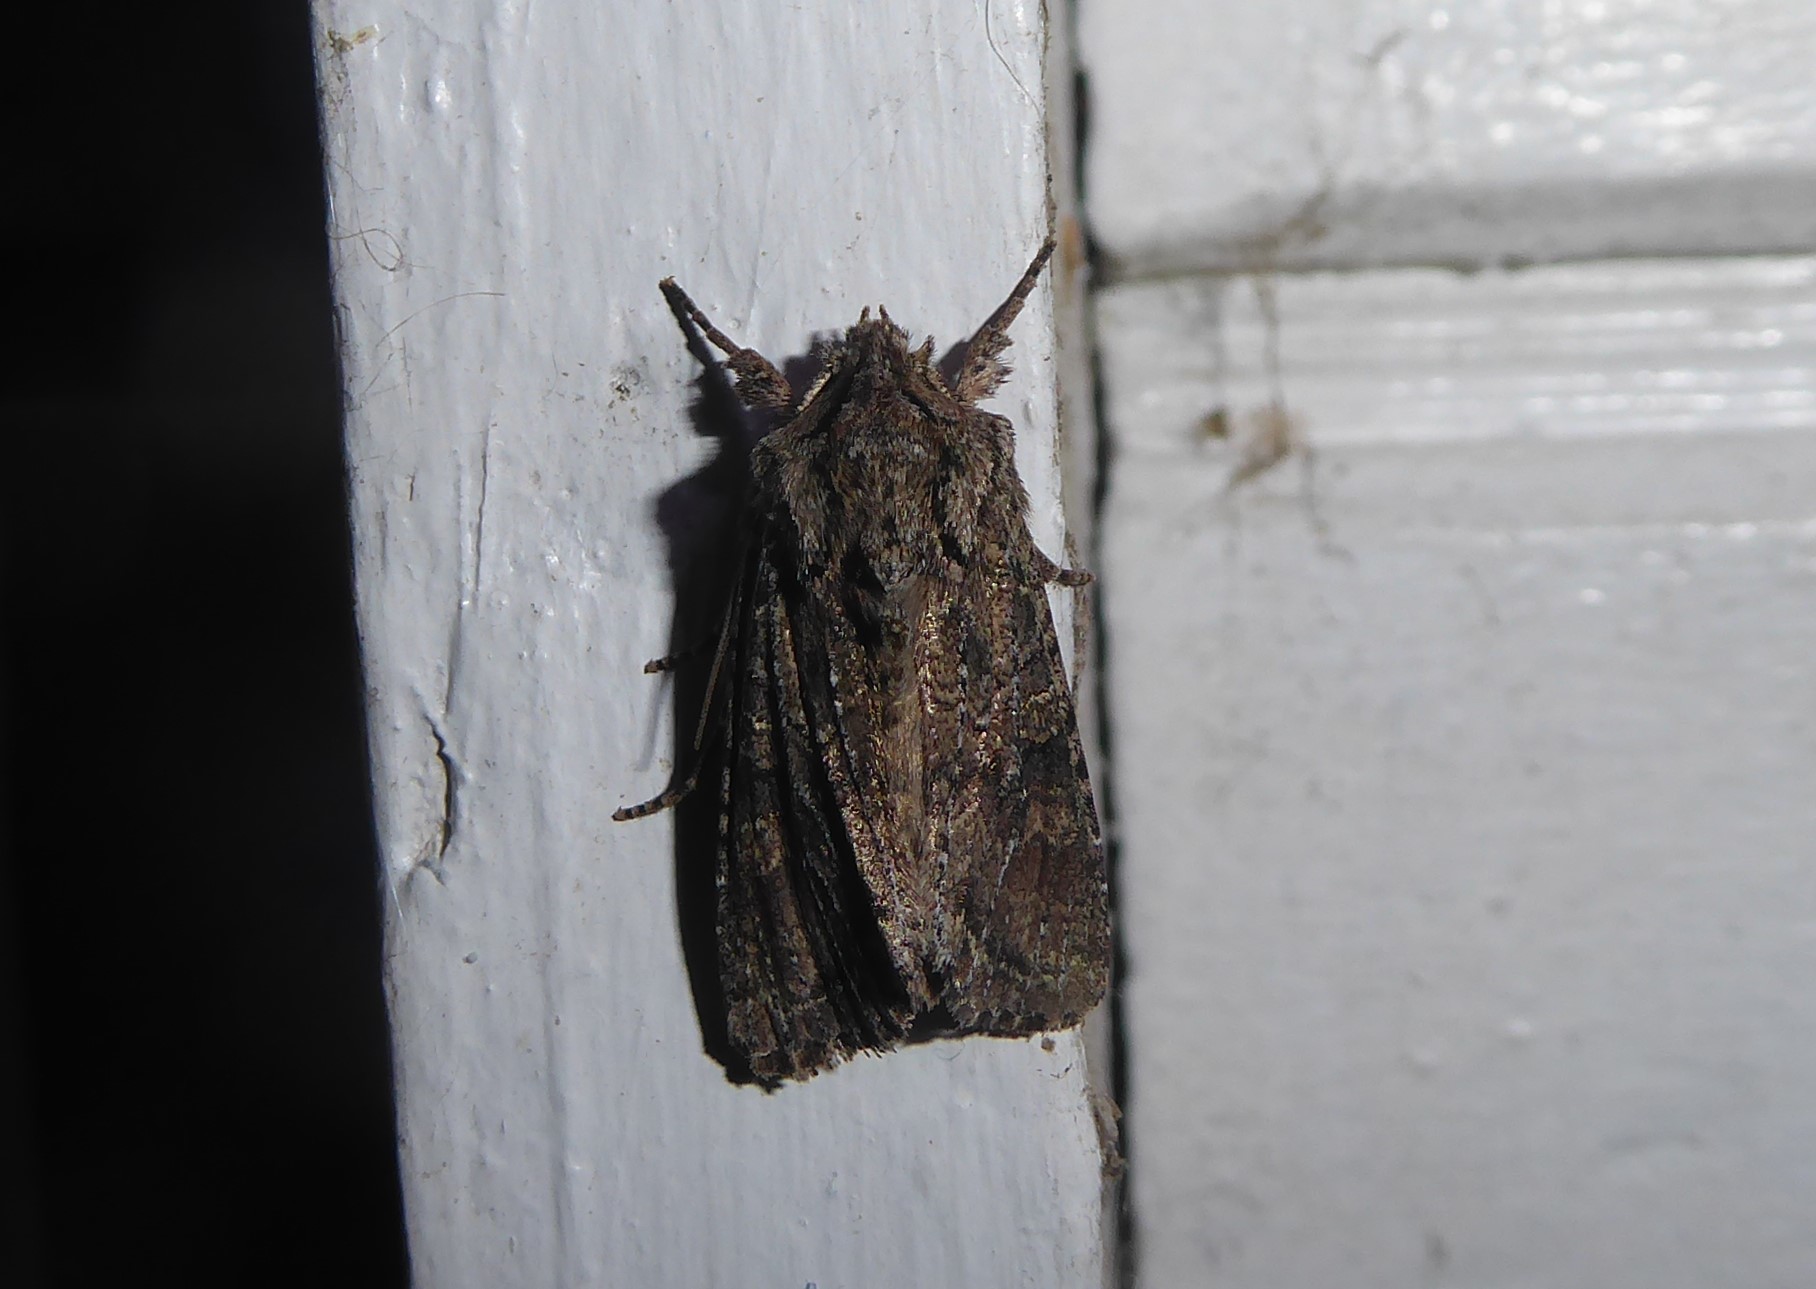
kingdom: Animalia
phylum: Arthropoda
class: Insecta
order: Lepidoptera
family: Noctuidae
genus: Ichneutica
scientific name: Ichneutica mutans
